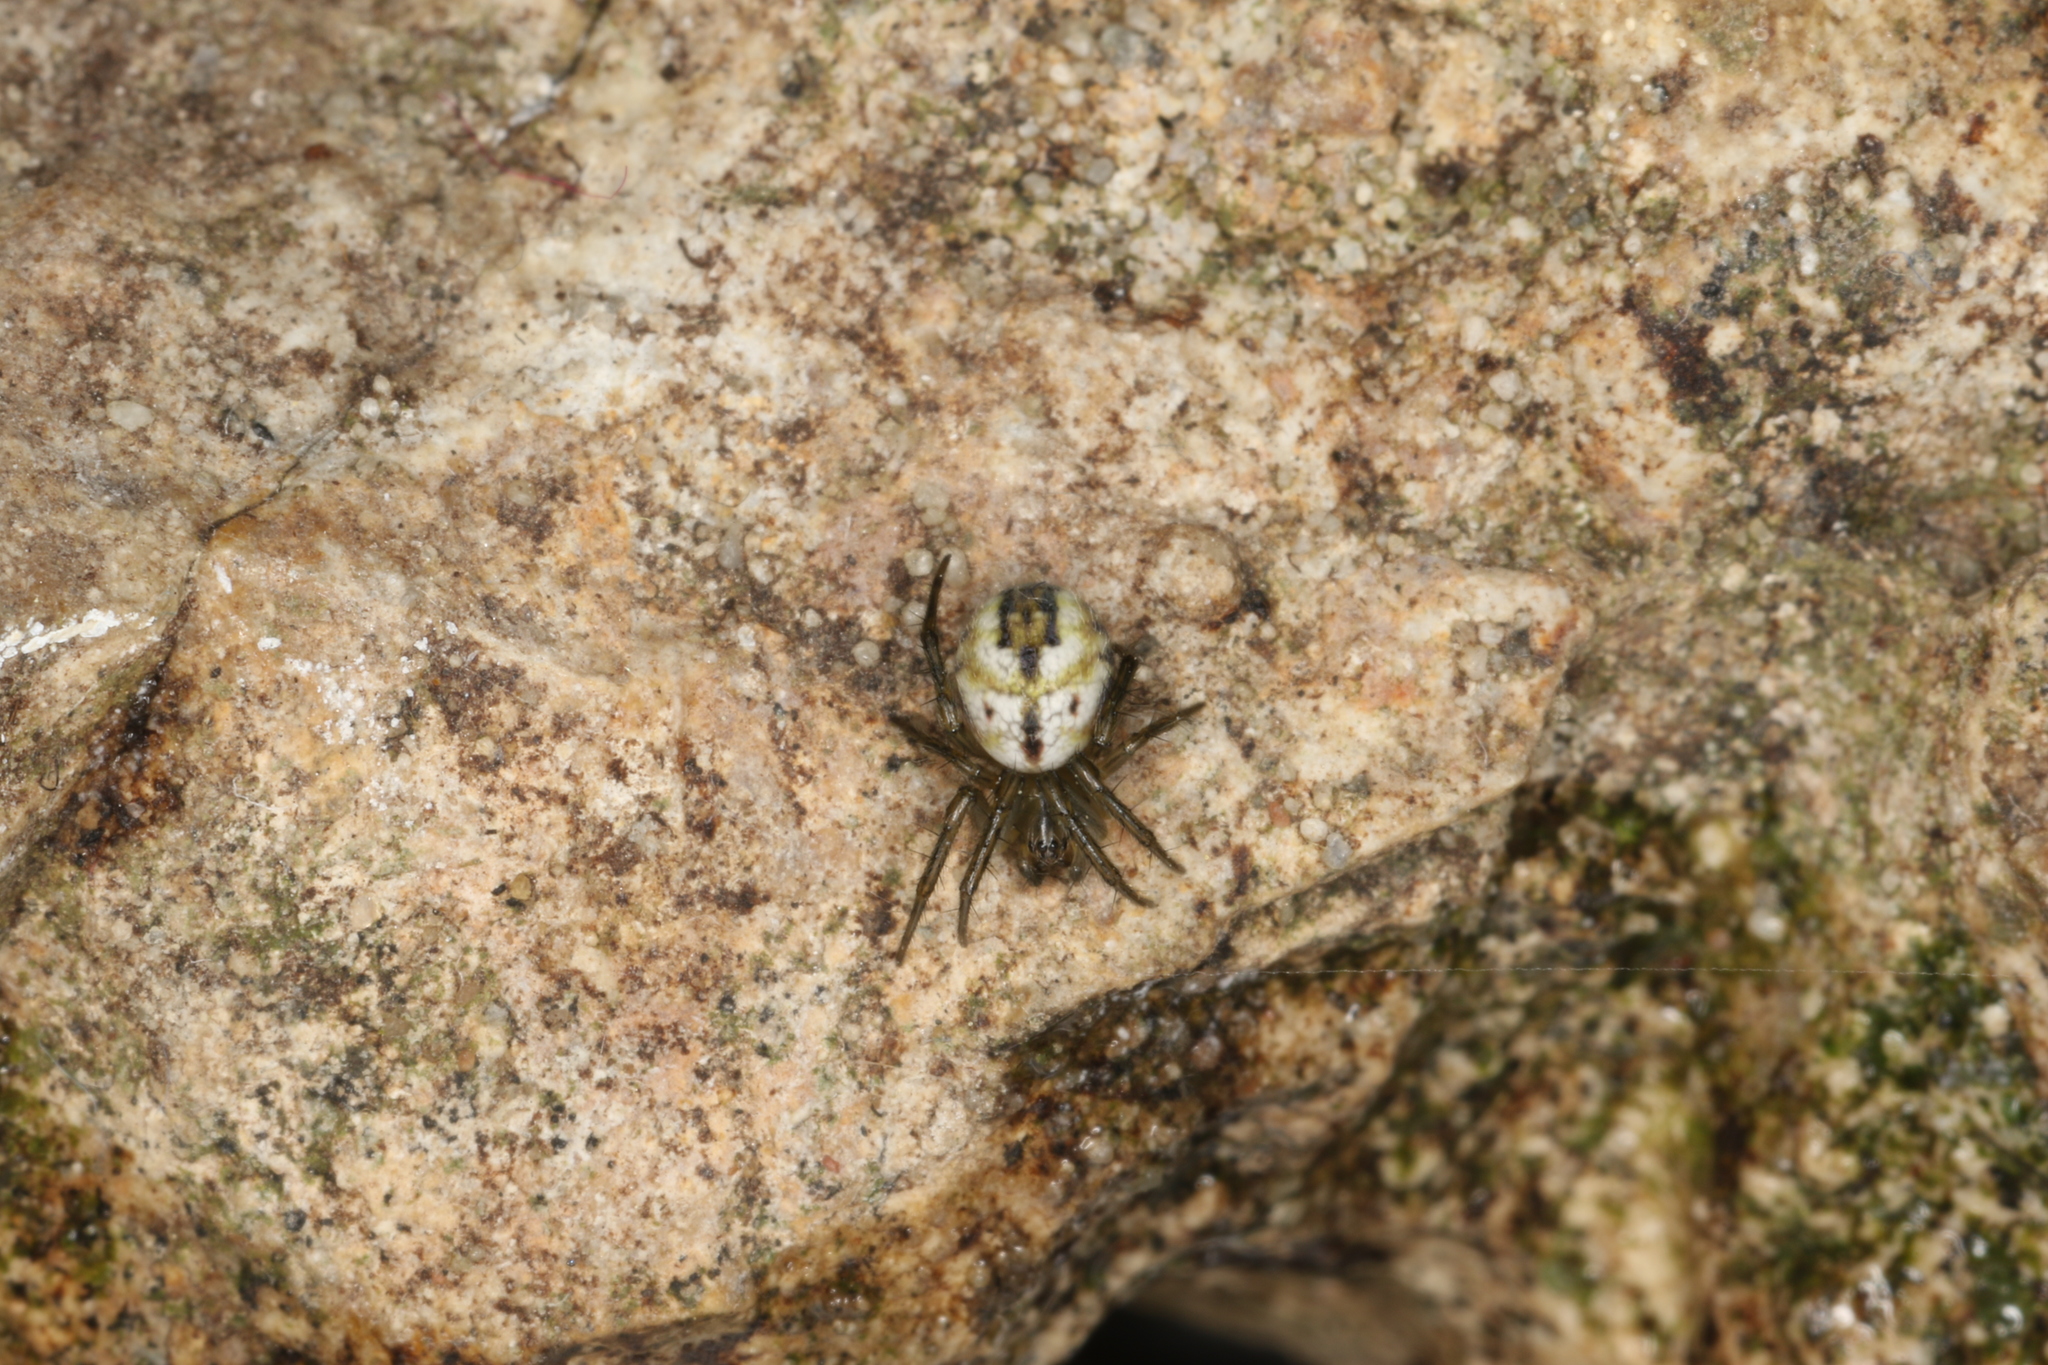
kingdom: Animalia
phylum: Arthropoda
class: Arachnida
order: Araneae
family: Araneidae
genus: Mangora
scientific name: Mangora acalypha
